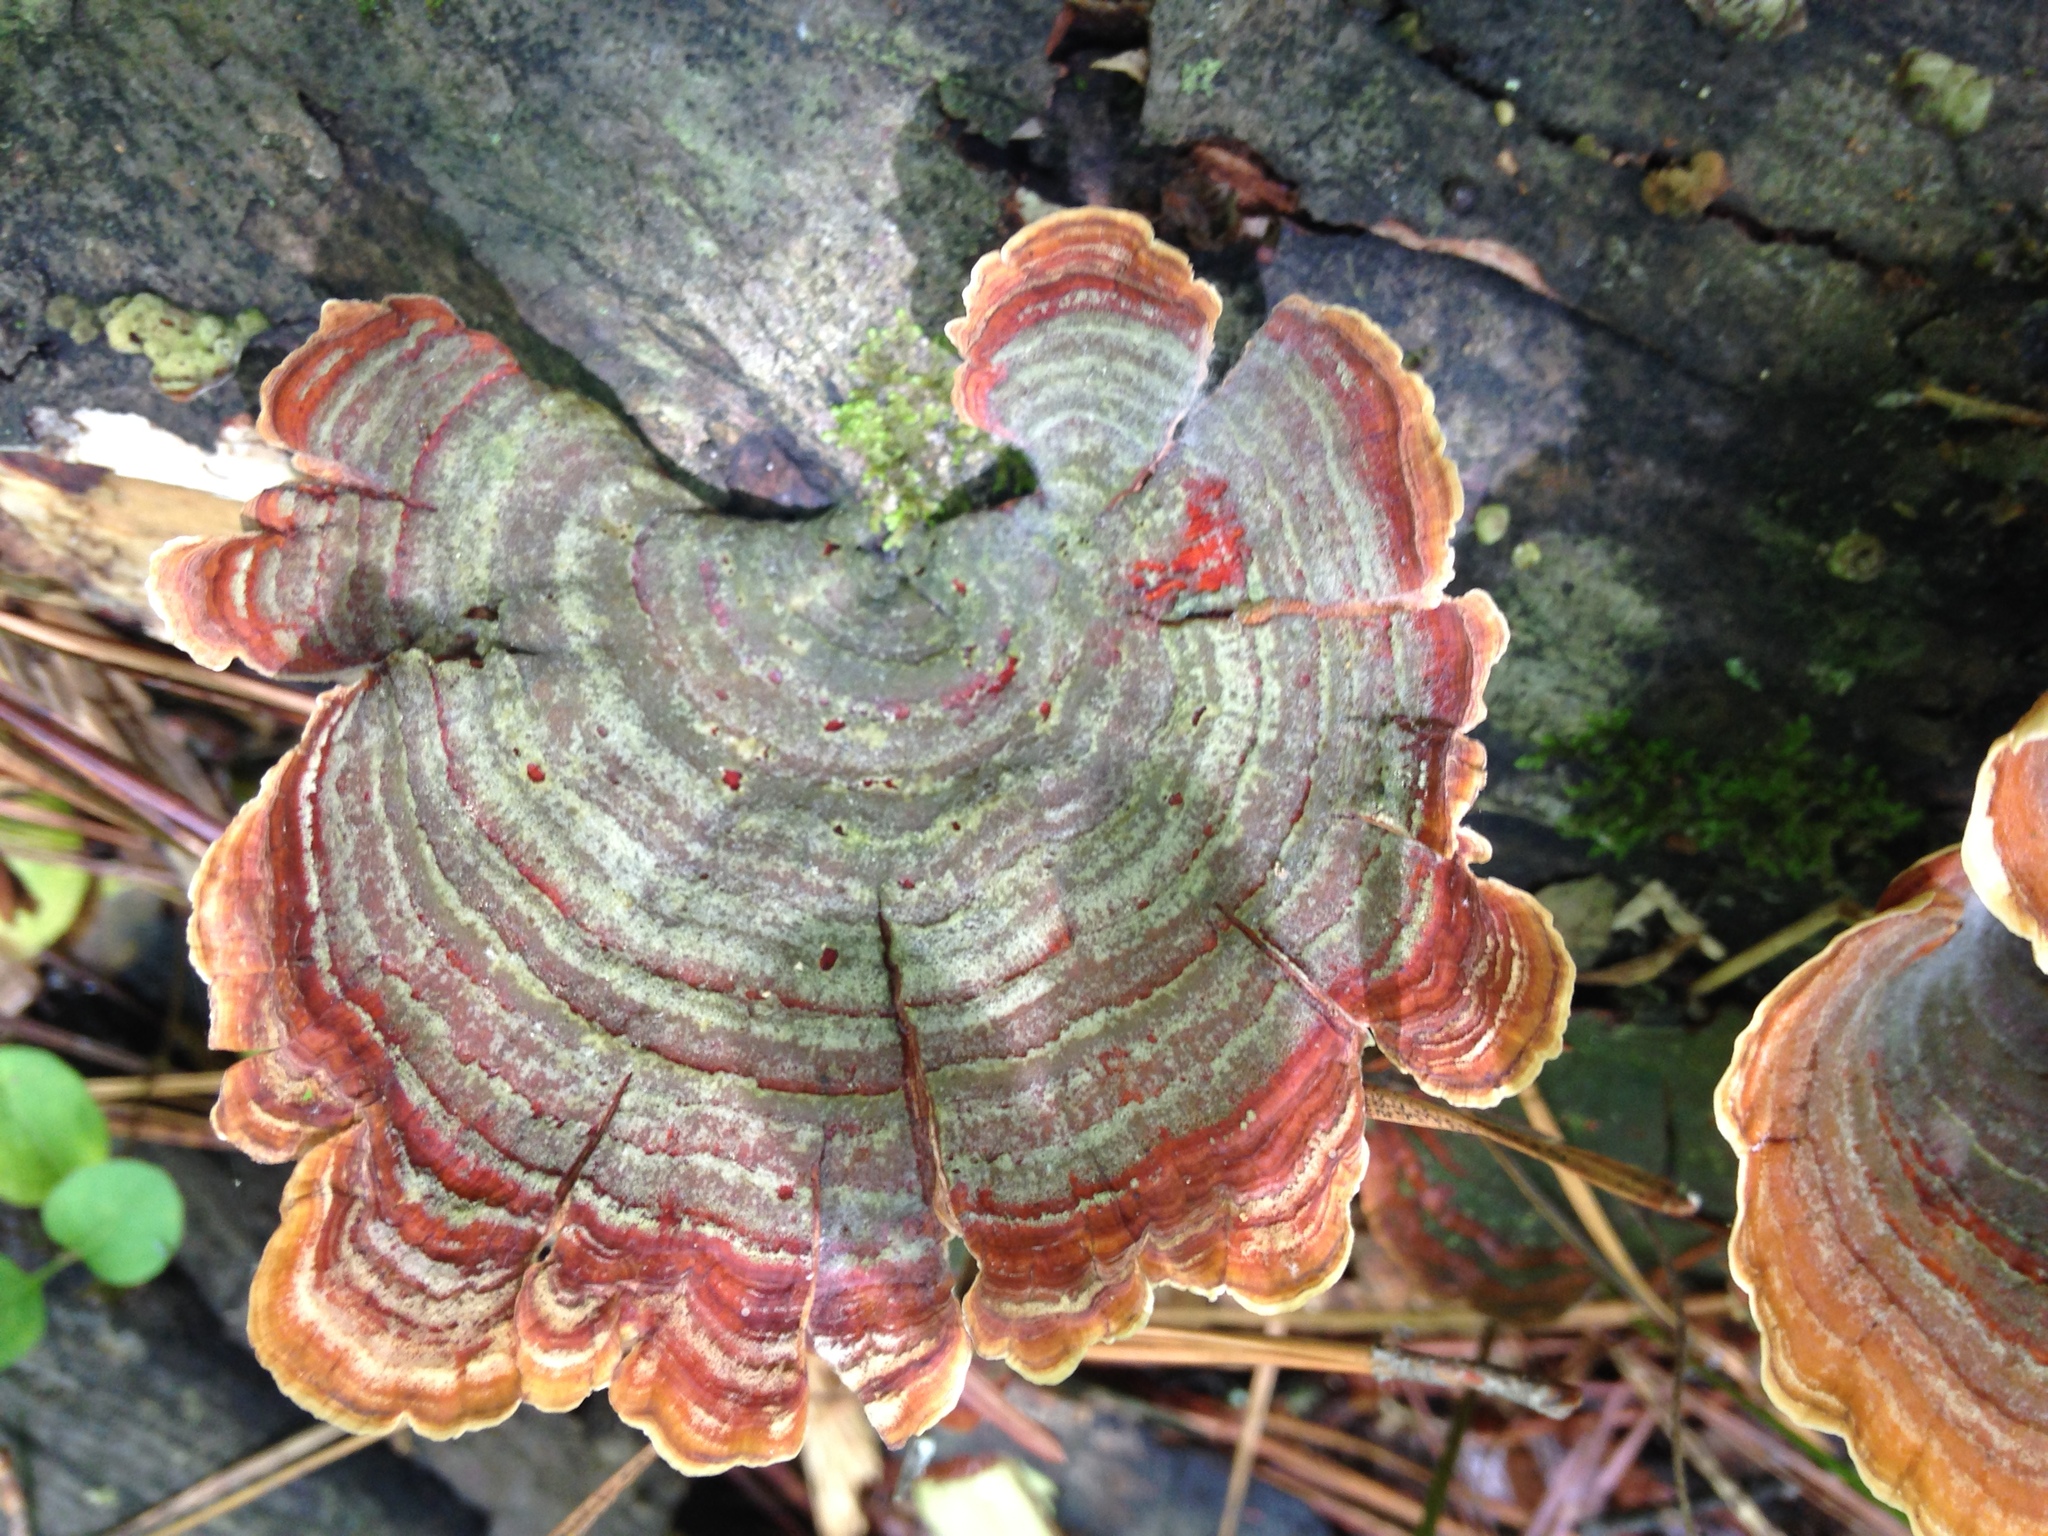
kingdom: Fungi
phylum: Basidiomycota
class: Agaricomycetes
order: Russulales
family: Stereaceae
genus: Stereum
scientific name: Stereum lobatum
